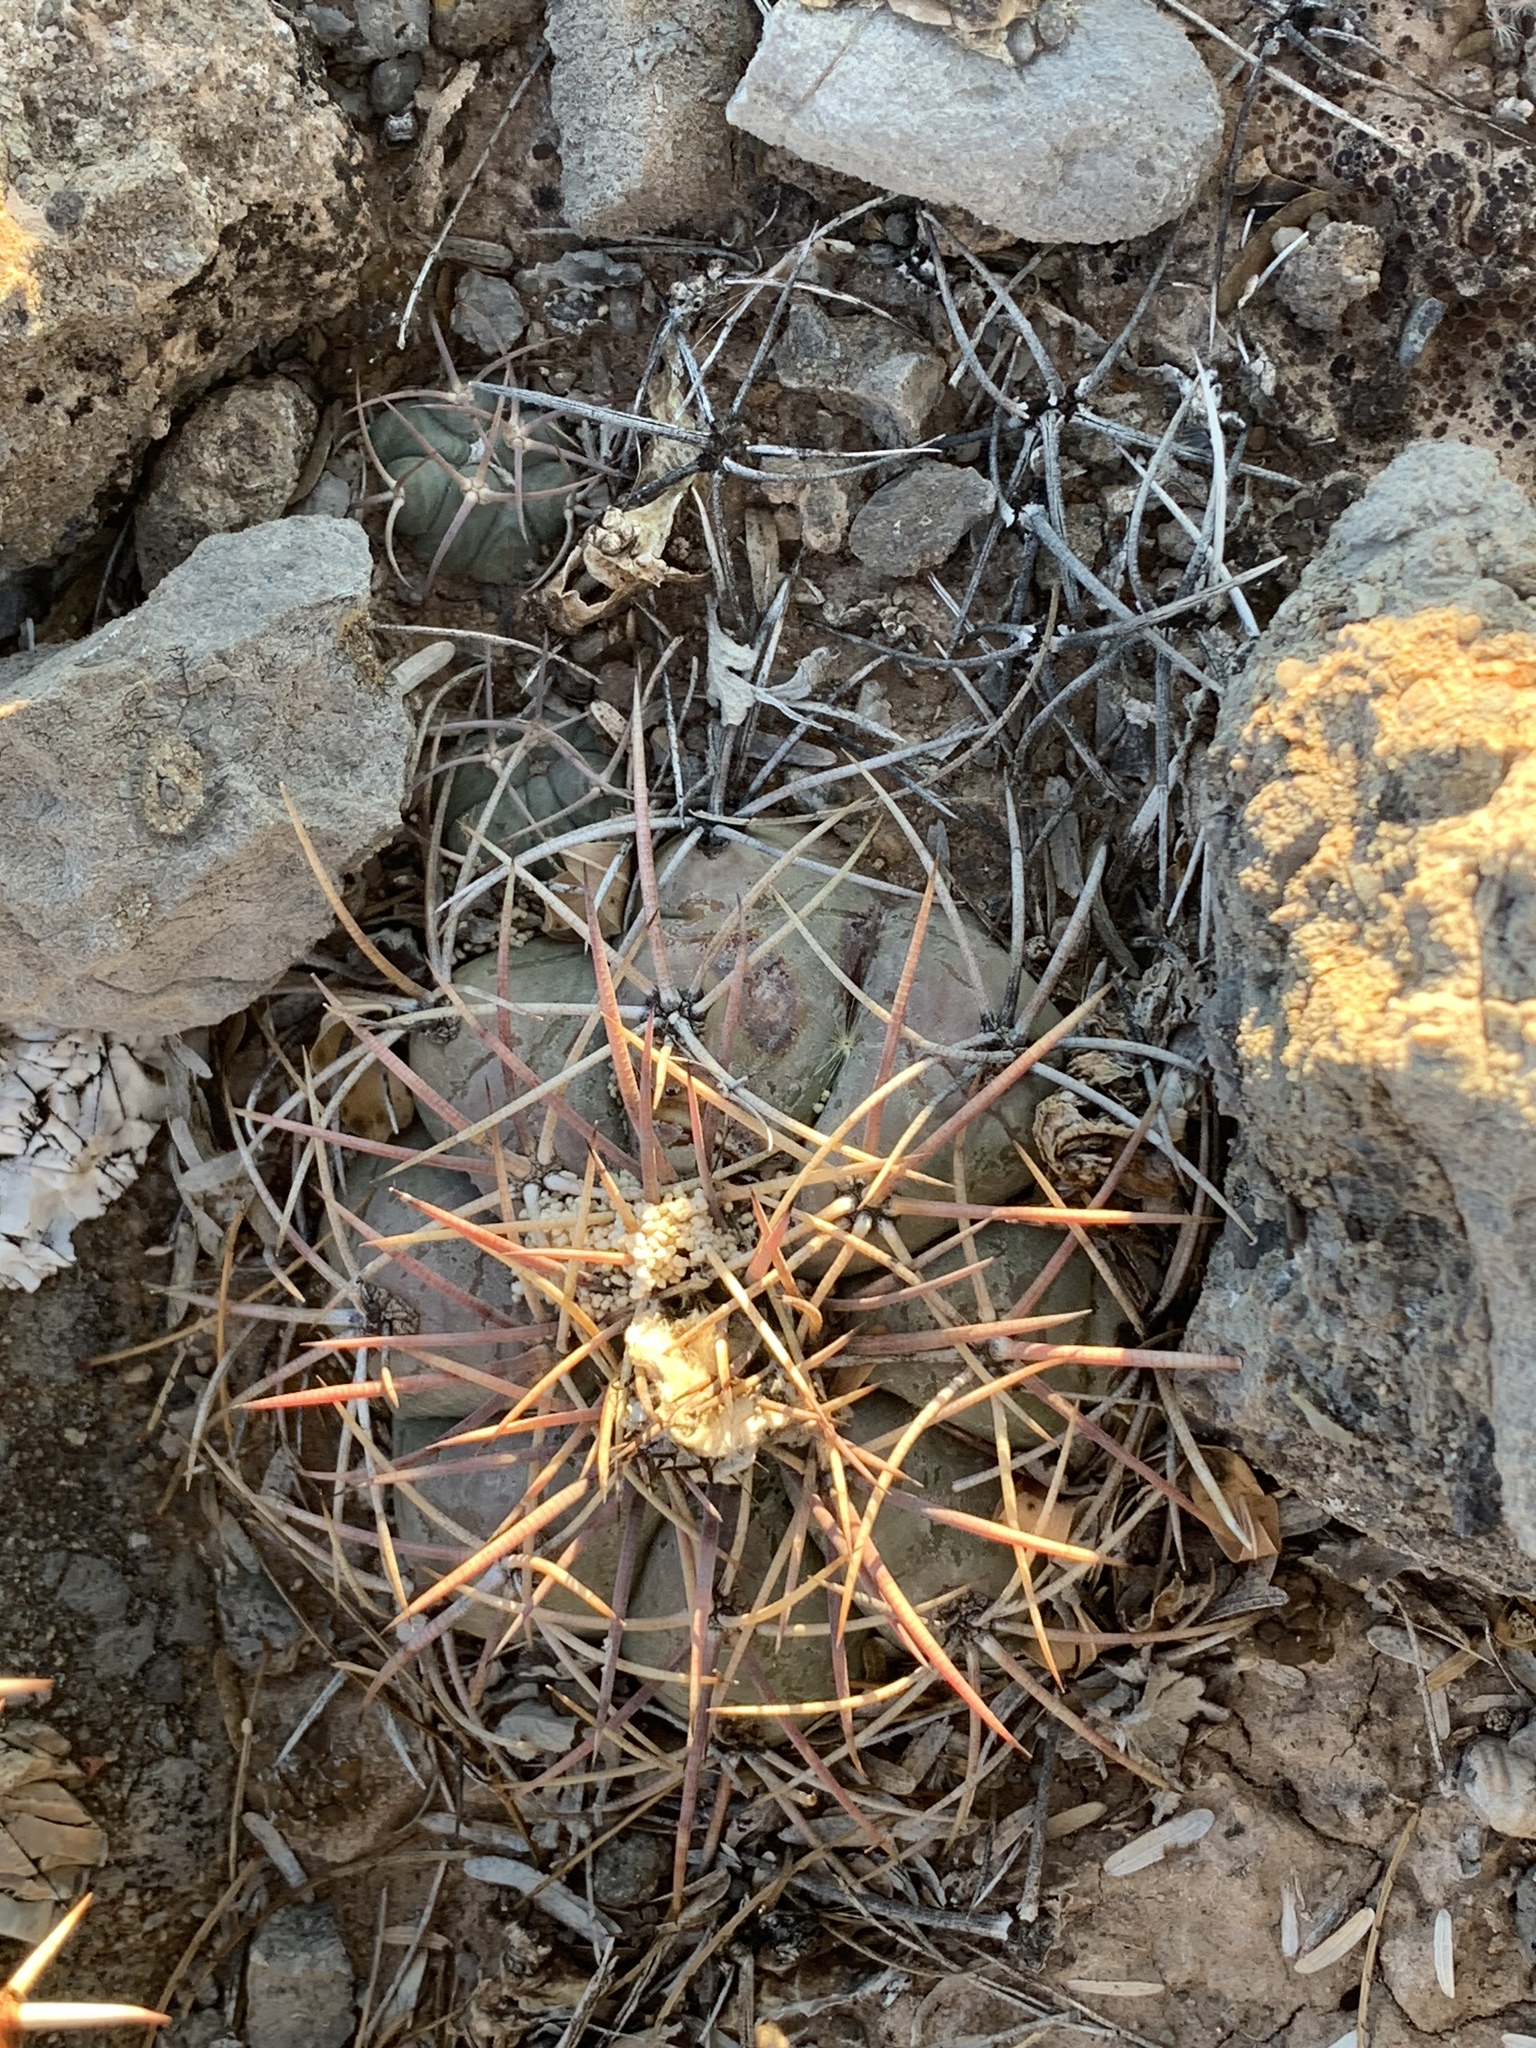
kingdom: Plantae
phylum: Tracheophyta
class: Magnoliopsida
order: Caryophyllales
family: Cactaceae
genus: Echinocactus
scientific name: Echinocactus horizonthalonius
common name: Devilshead
